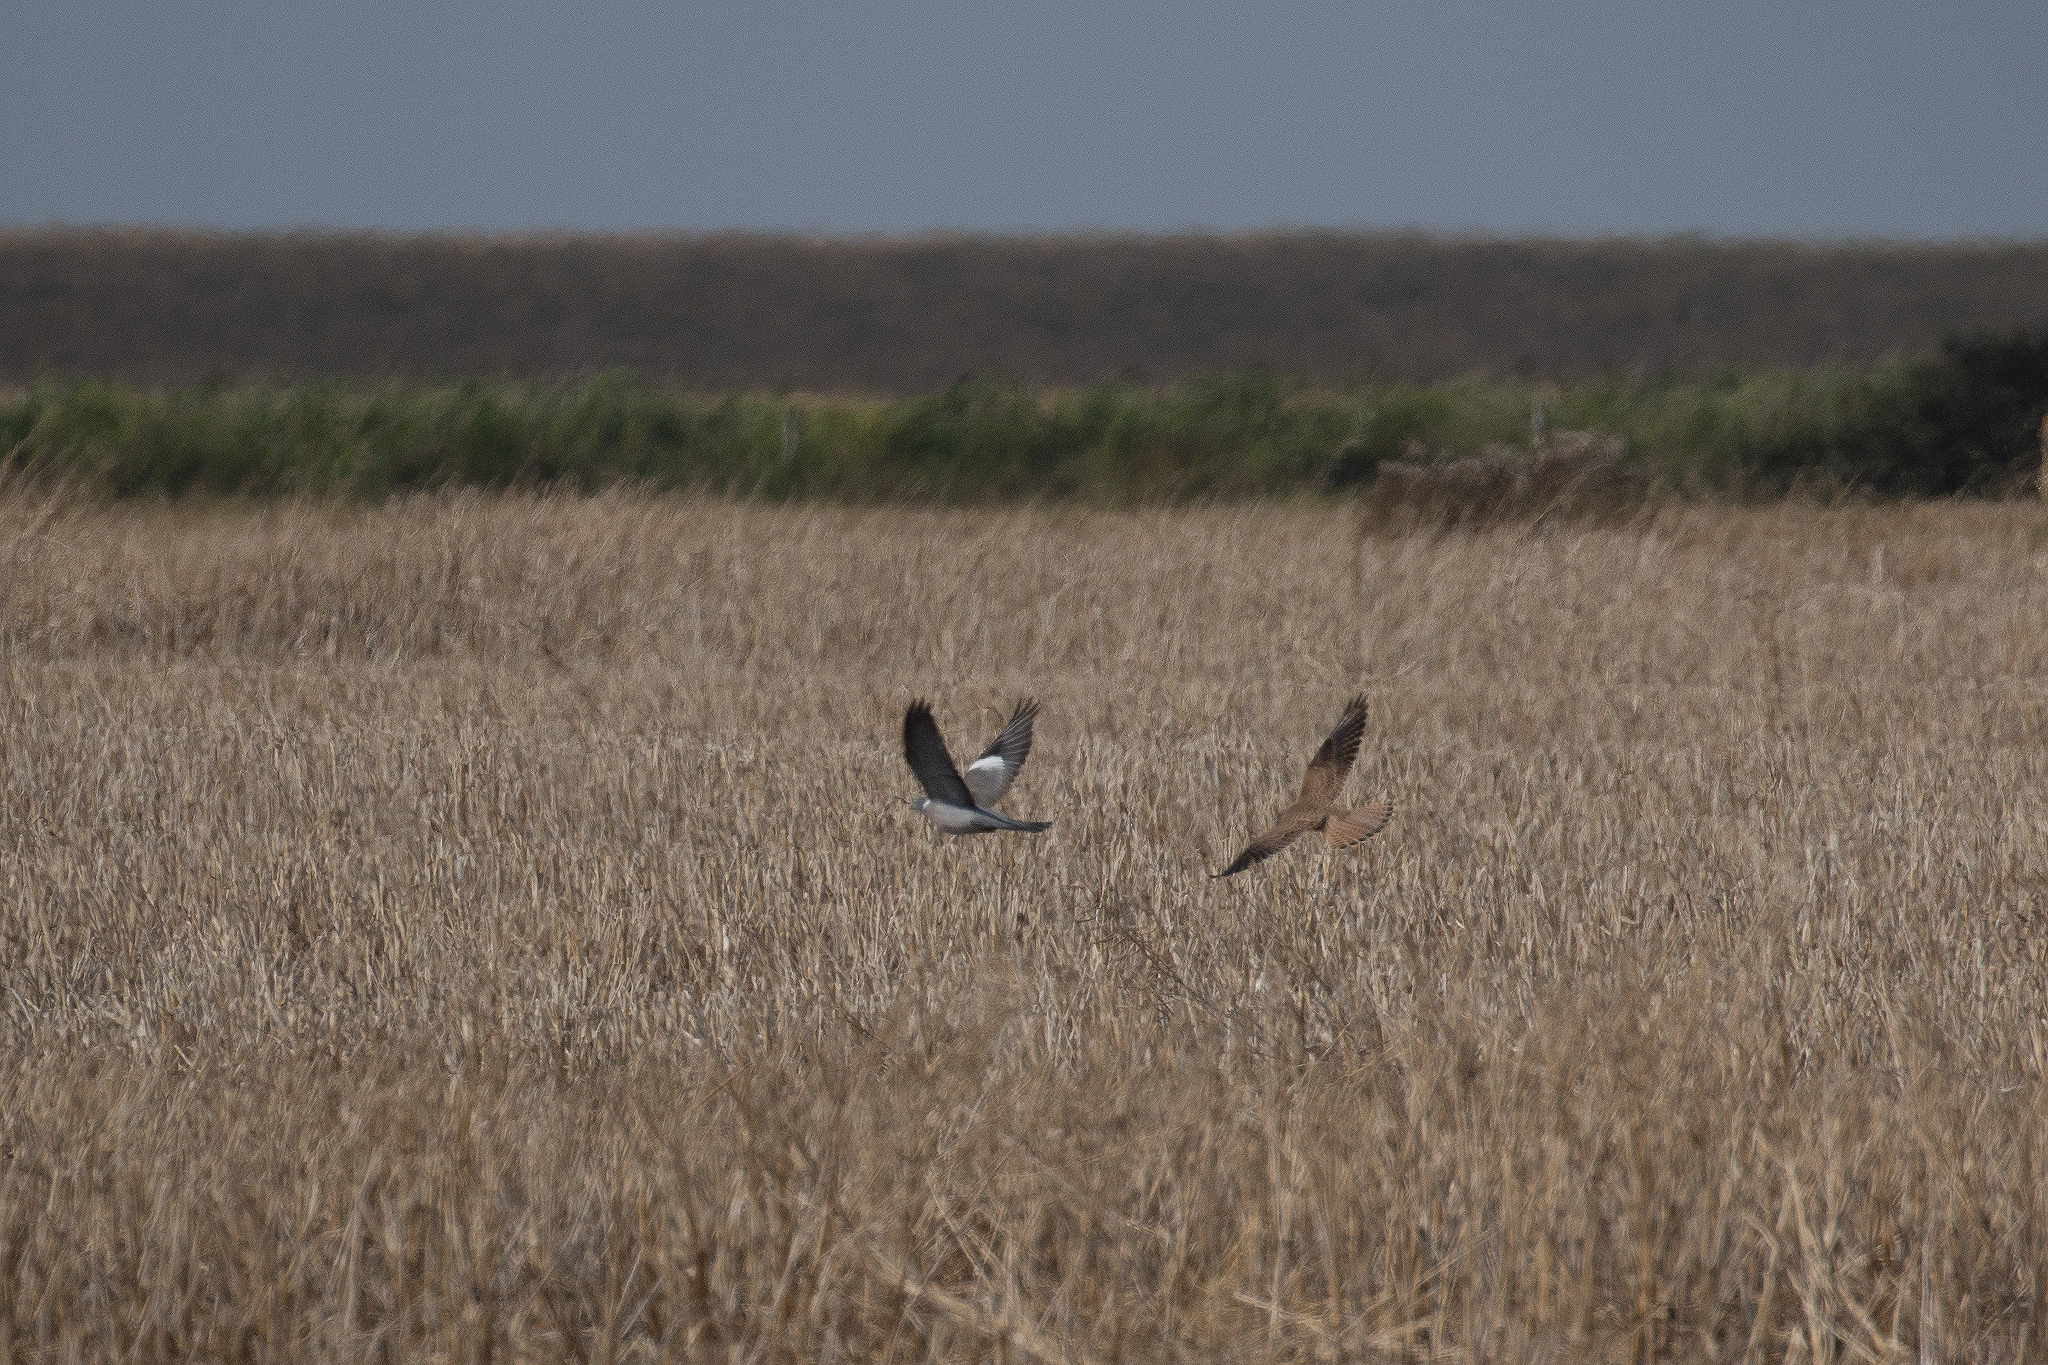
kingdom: Animalia
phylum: Chordata
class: Aves
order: Falconiformes
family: Falconidae
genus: Falco
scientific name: Falco tinnunculus
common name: Common kestrel
